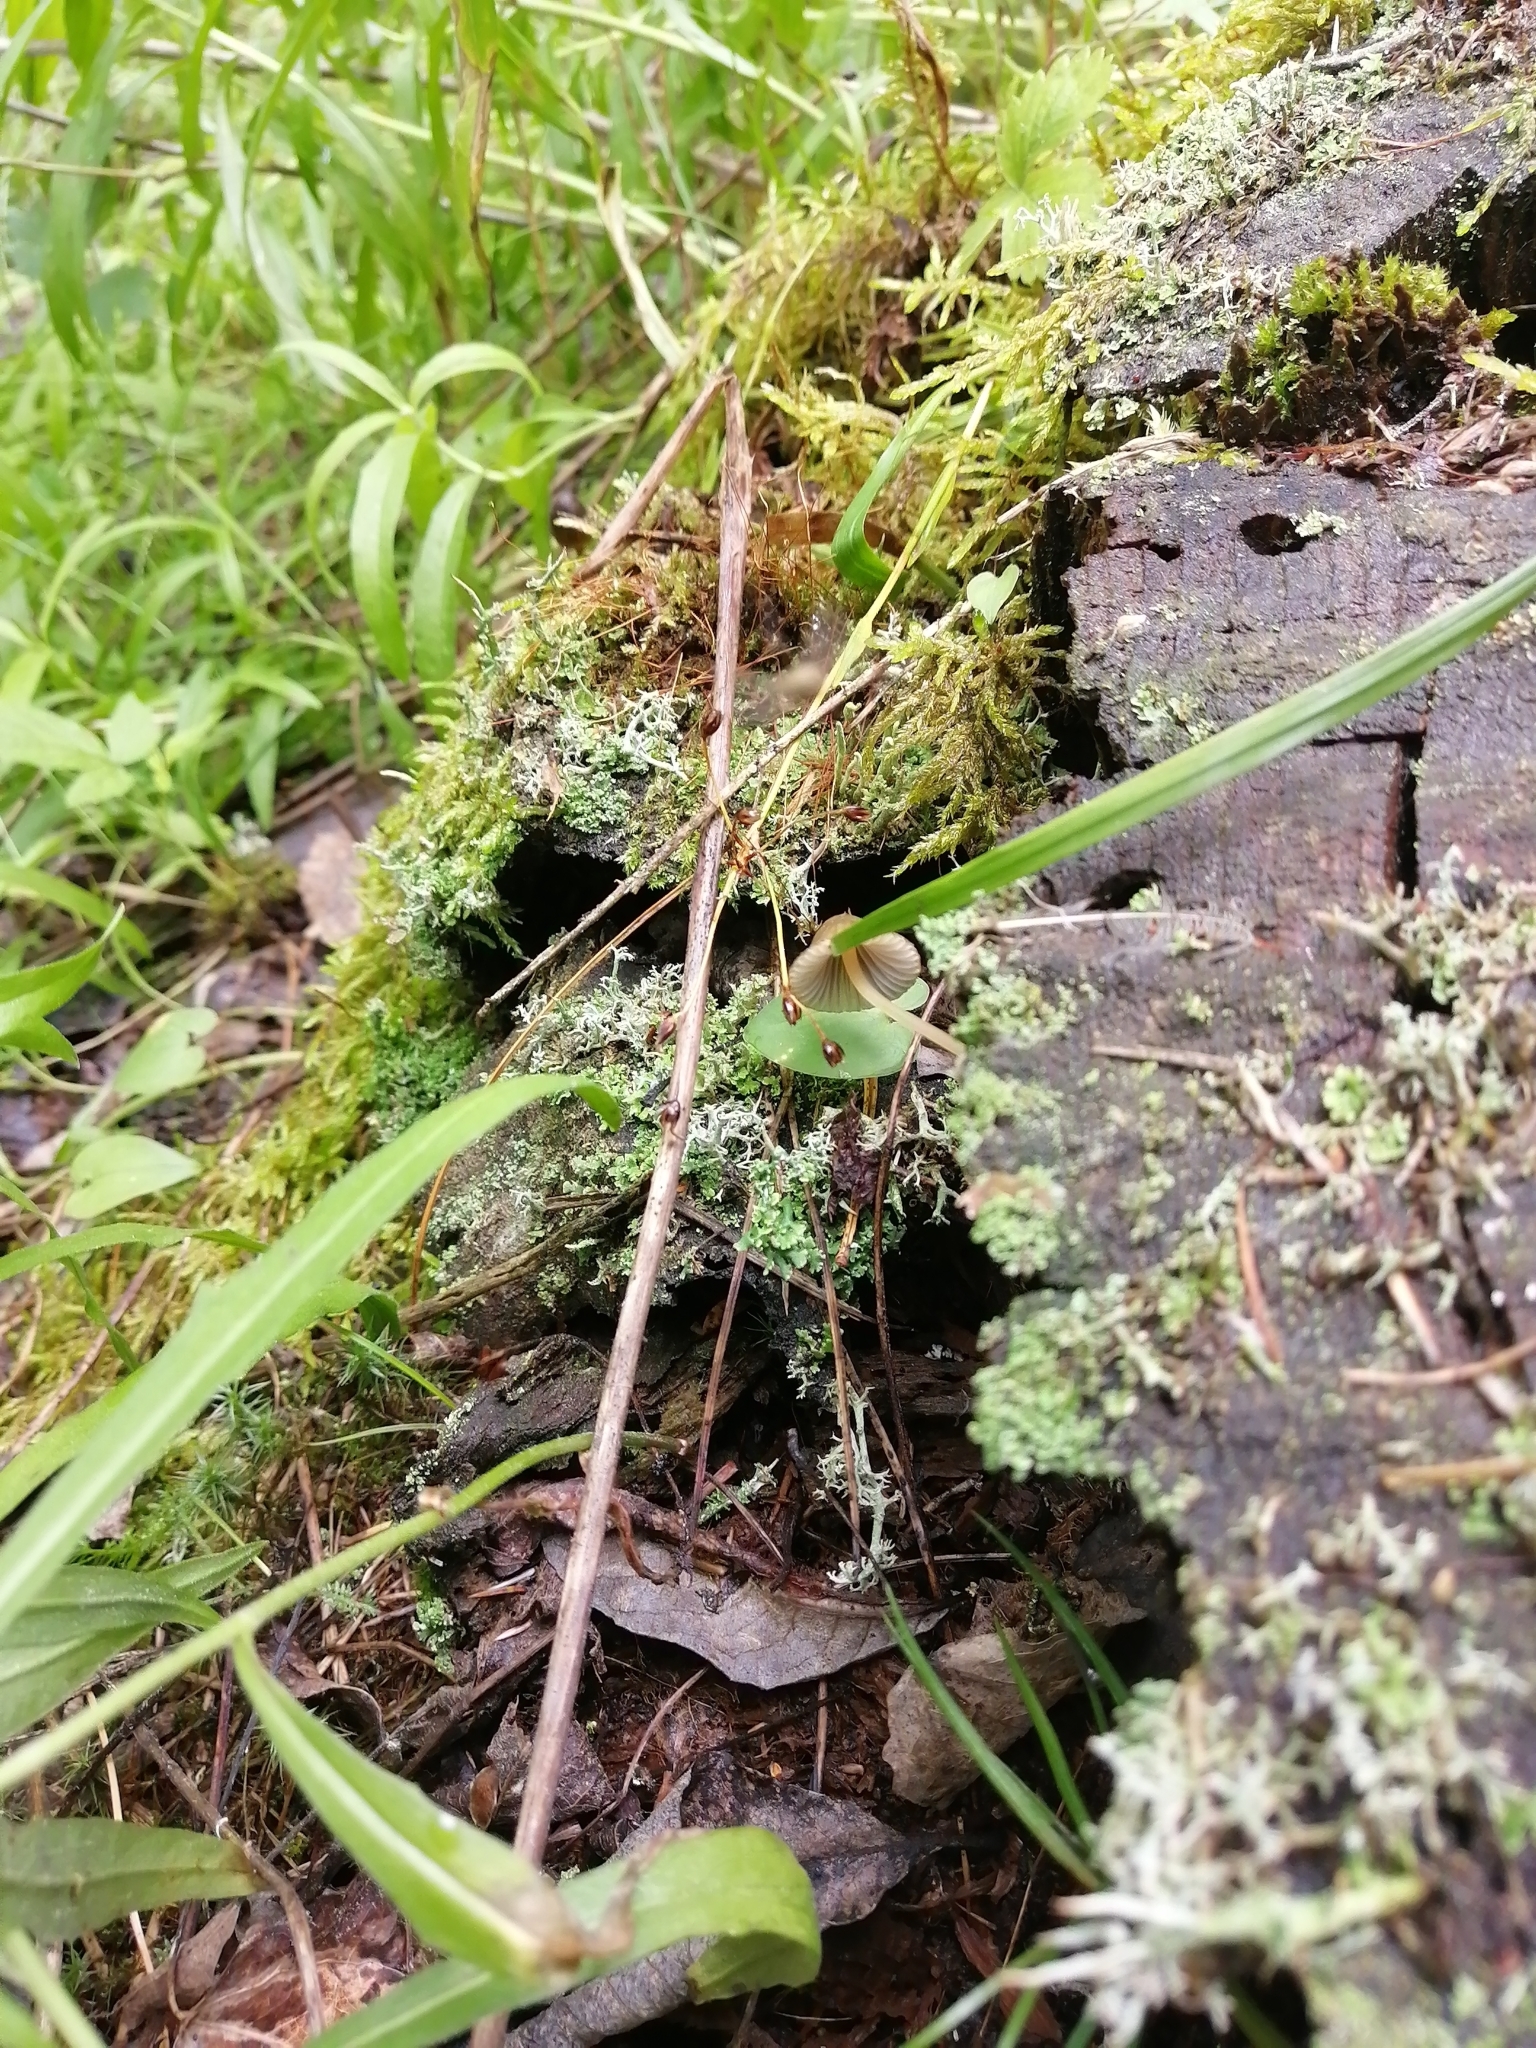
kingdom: Fungi
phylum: Basidiomycota
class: Agaricomycetes
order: Agaricales
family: Mycenaceae
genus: Mycena
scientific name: Mycena viridimarginata
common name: Olive edge bonnet
